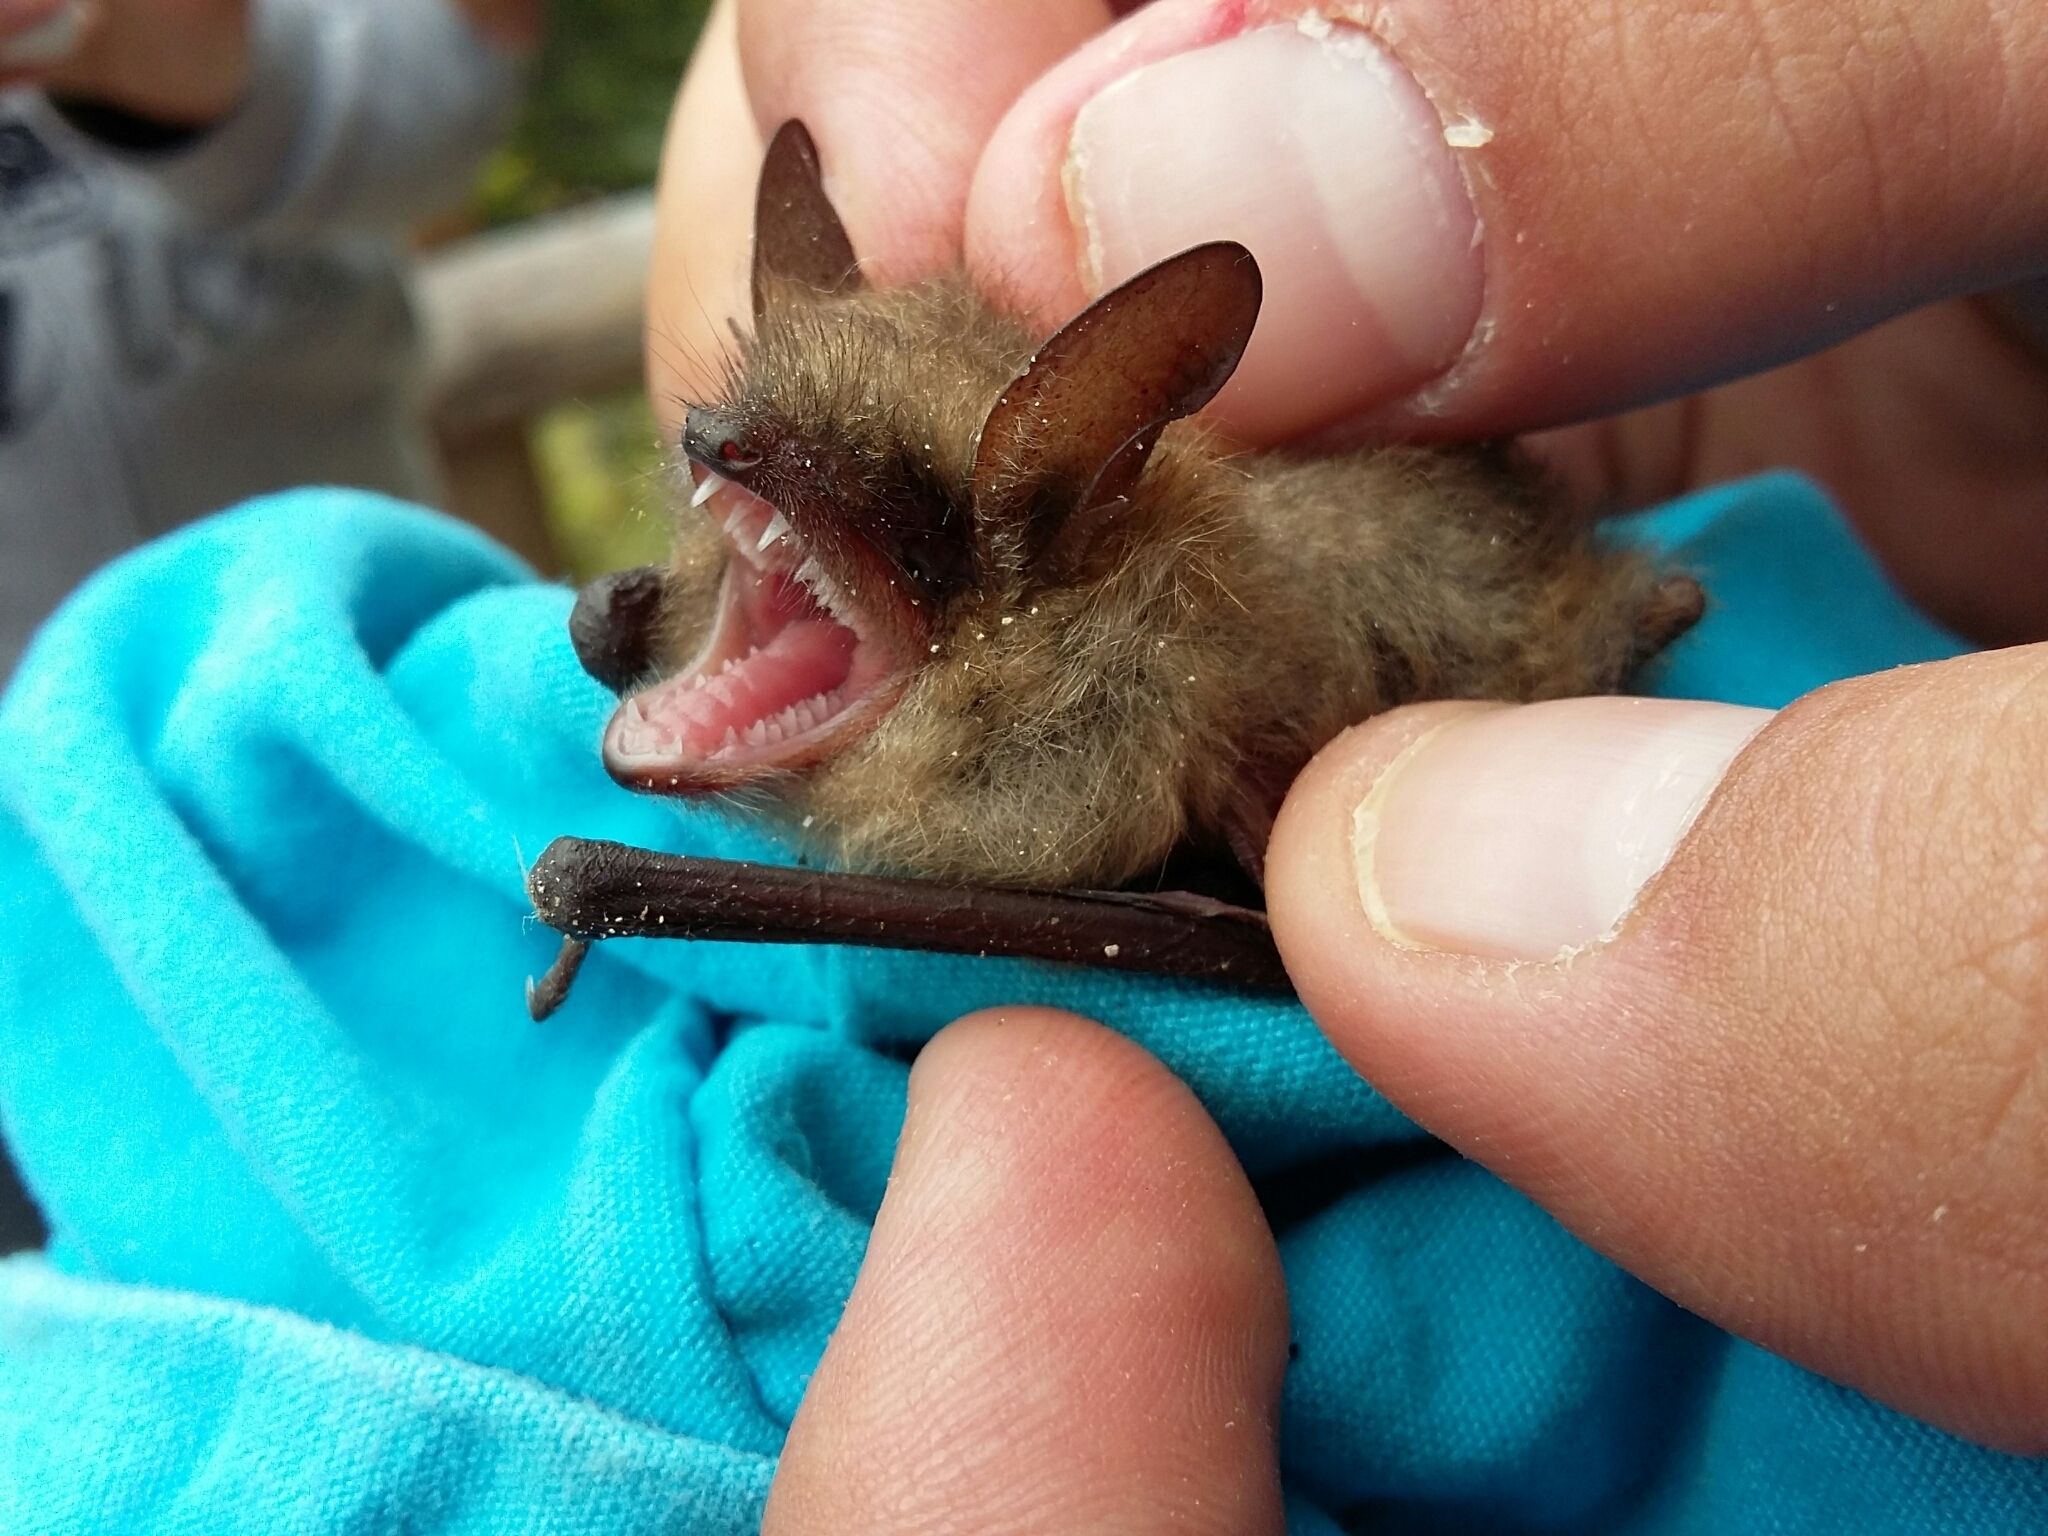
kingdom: Animalia
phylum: Chordata
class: Mammalia
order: Chiroptera
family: Vespertilionidae
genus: Myotis
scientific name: Myotis emarginatus
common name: Geoffroy's bat
